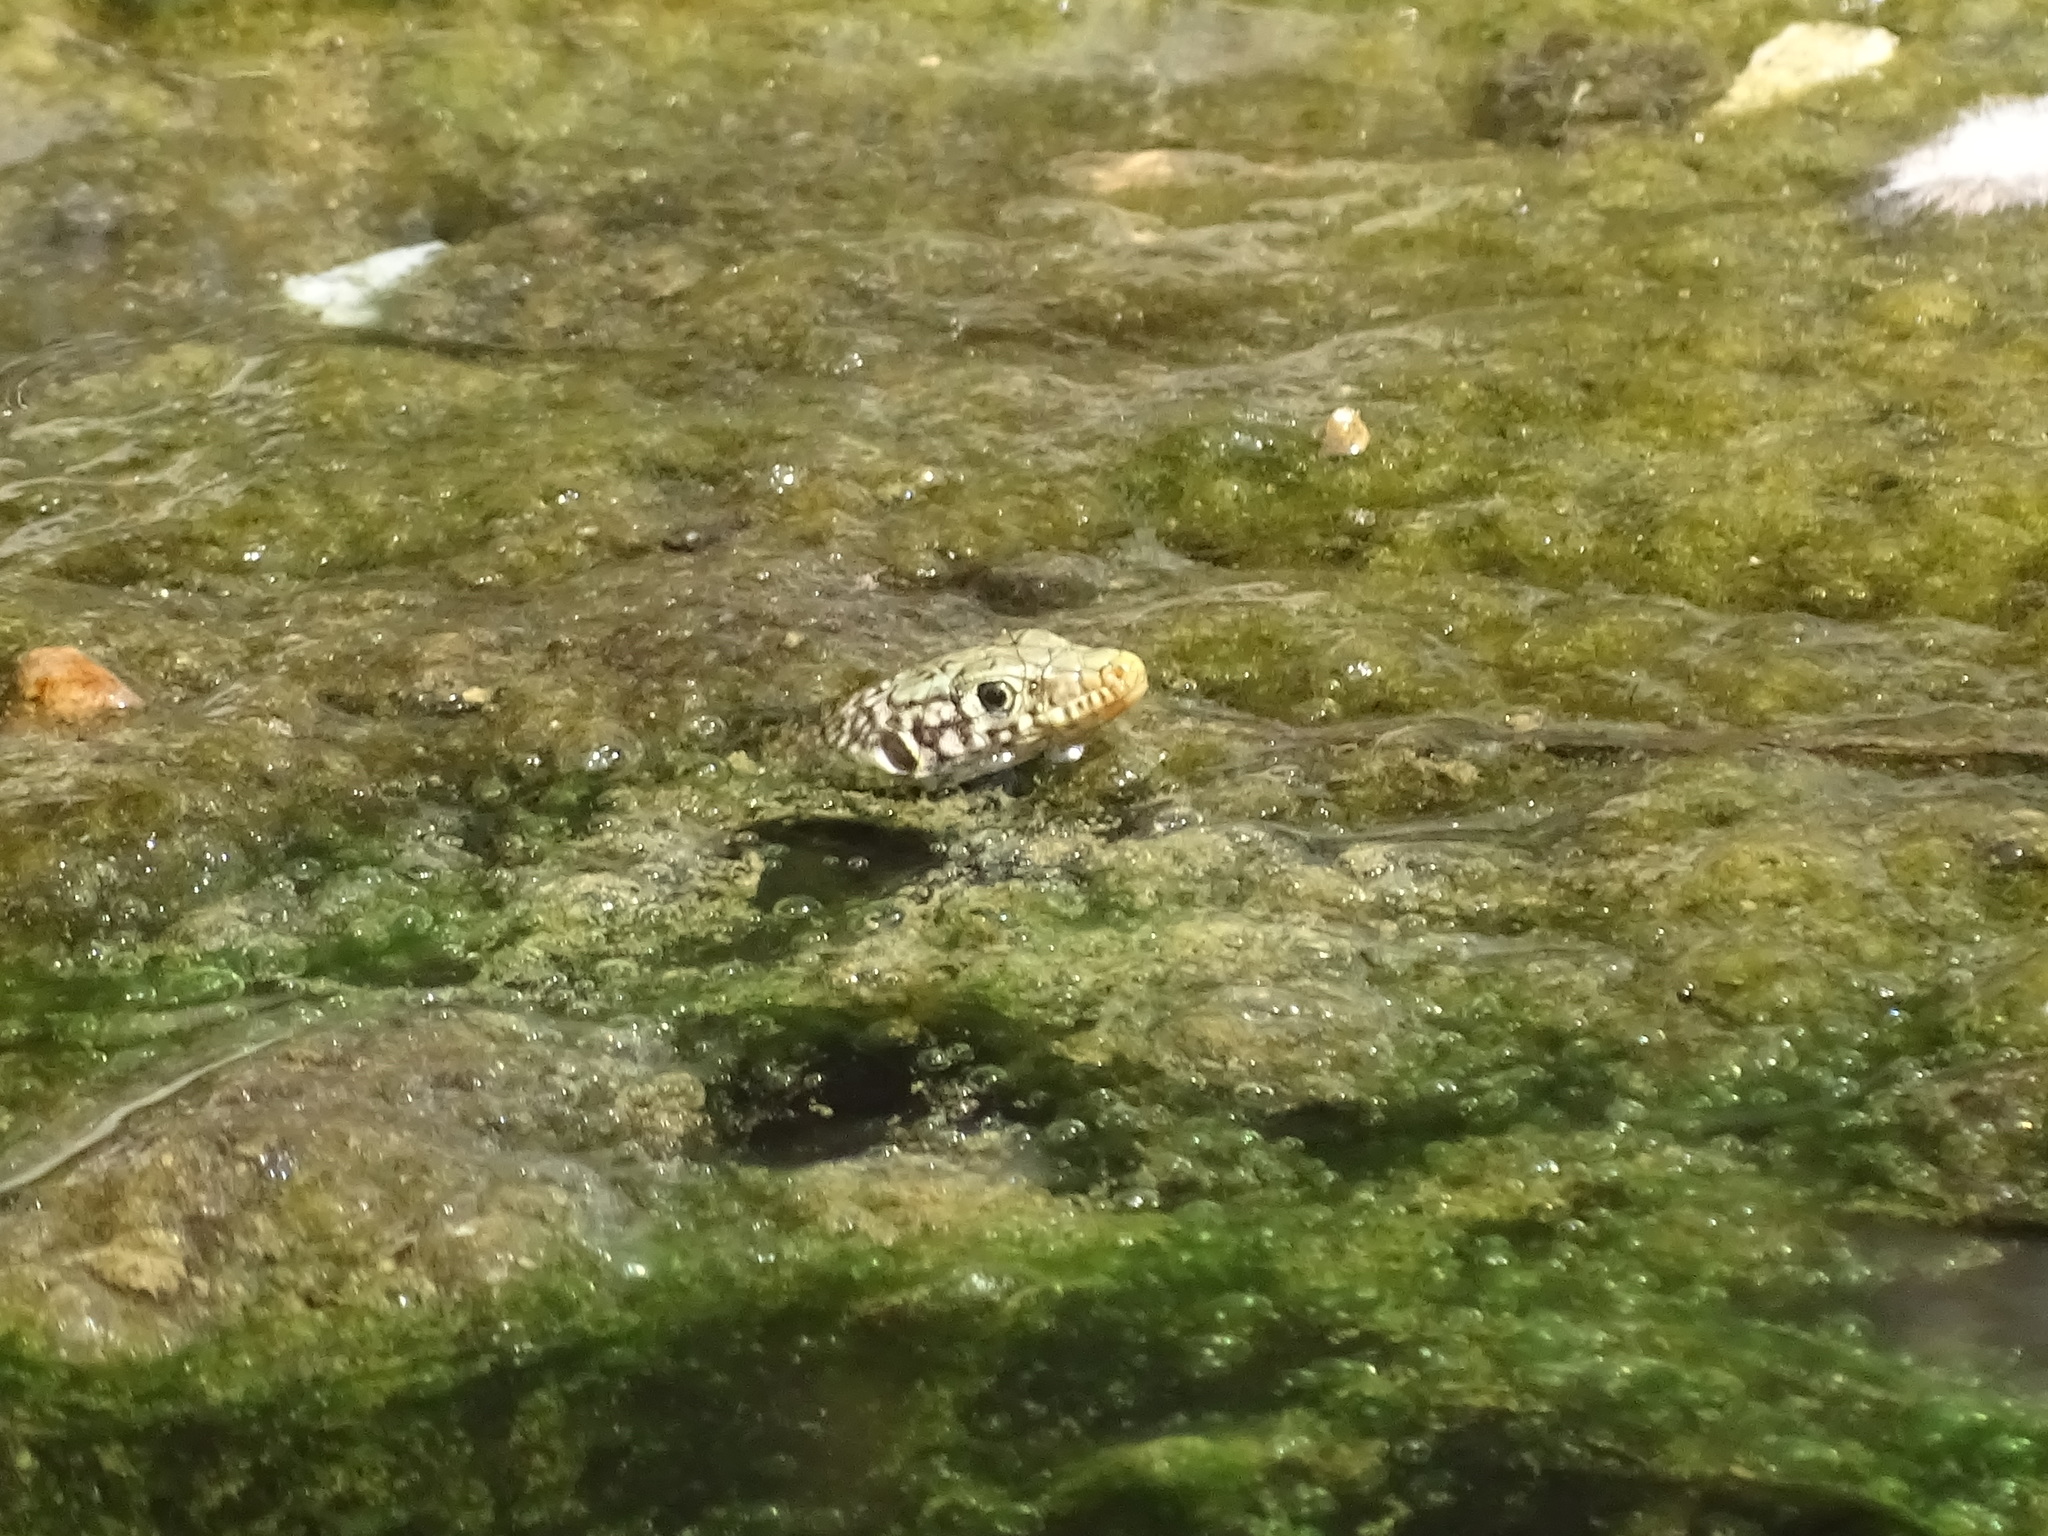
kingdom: Animalia
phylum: Chordata
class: Squamata
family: Lacertidae
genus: Omanosaura
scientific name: Omanosaura jayakari
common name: Jayakar lizard
